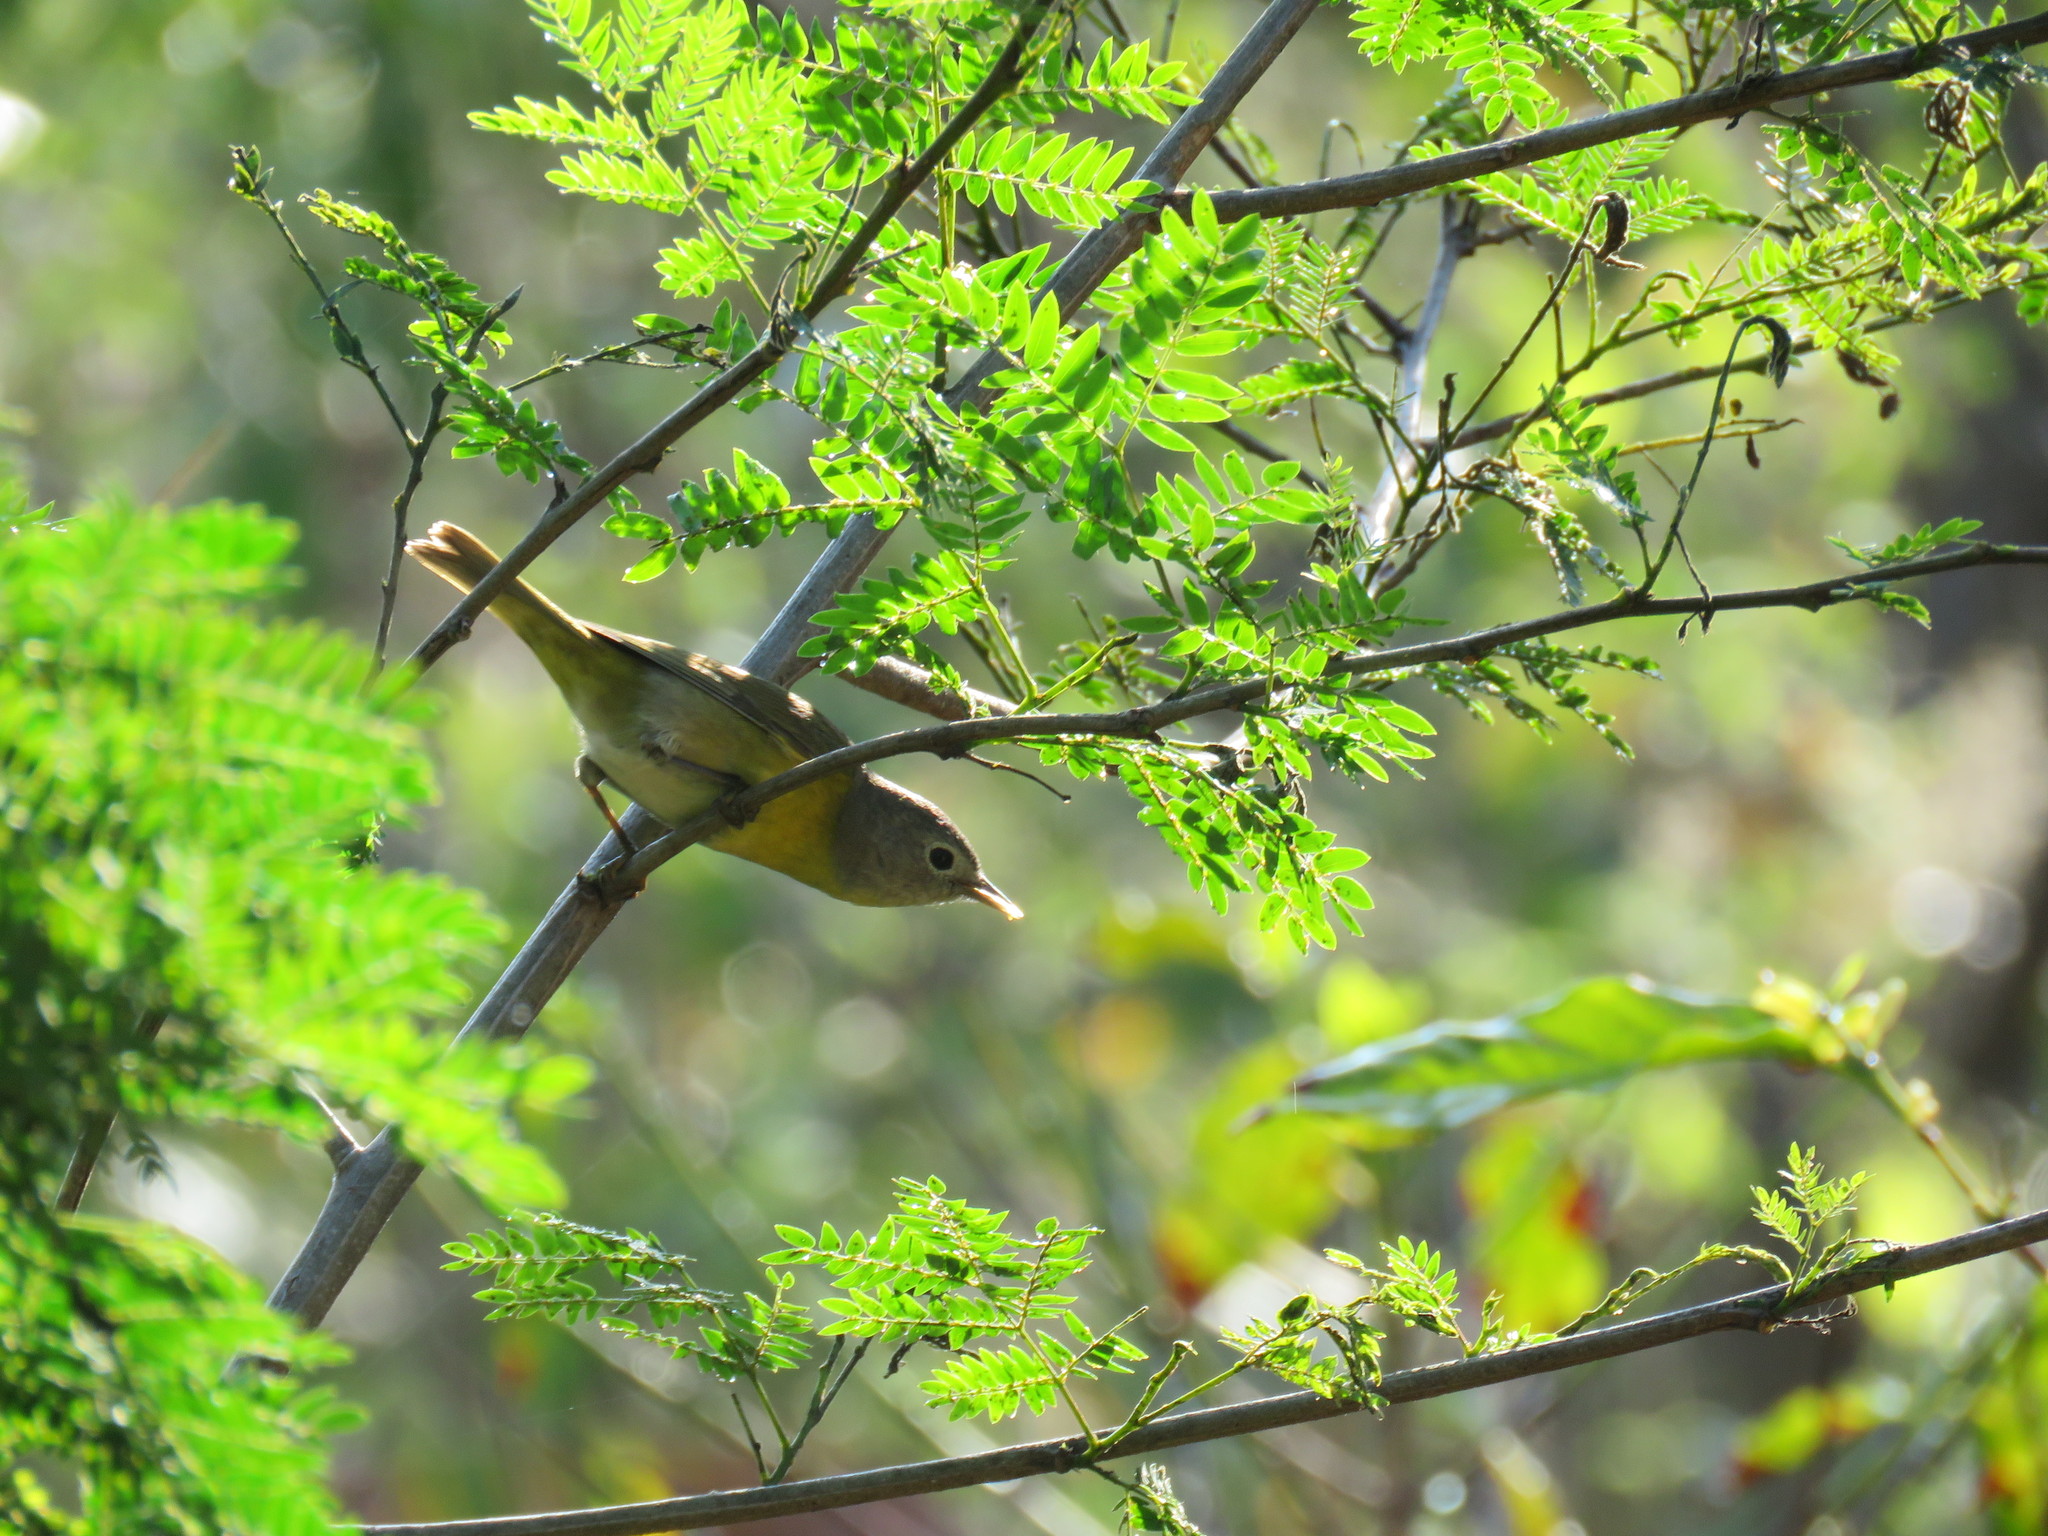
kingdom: Animalia
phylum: Chordata
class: Aves
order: Passeriformes
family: Parulidae
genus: Leiothlypis
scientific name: Leiothlypis ruficapilla
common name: Nashville warbler
